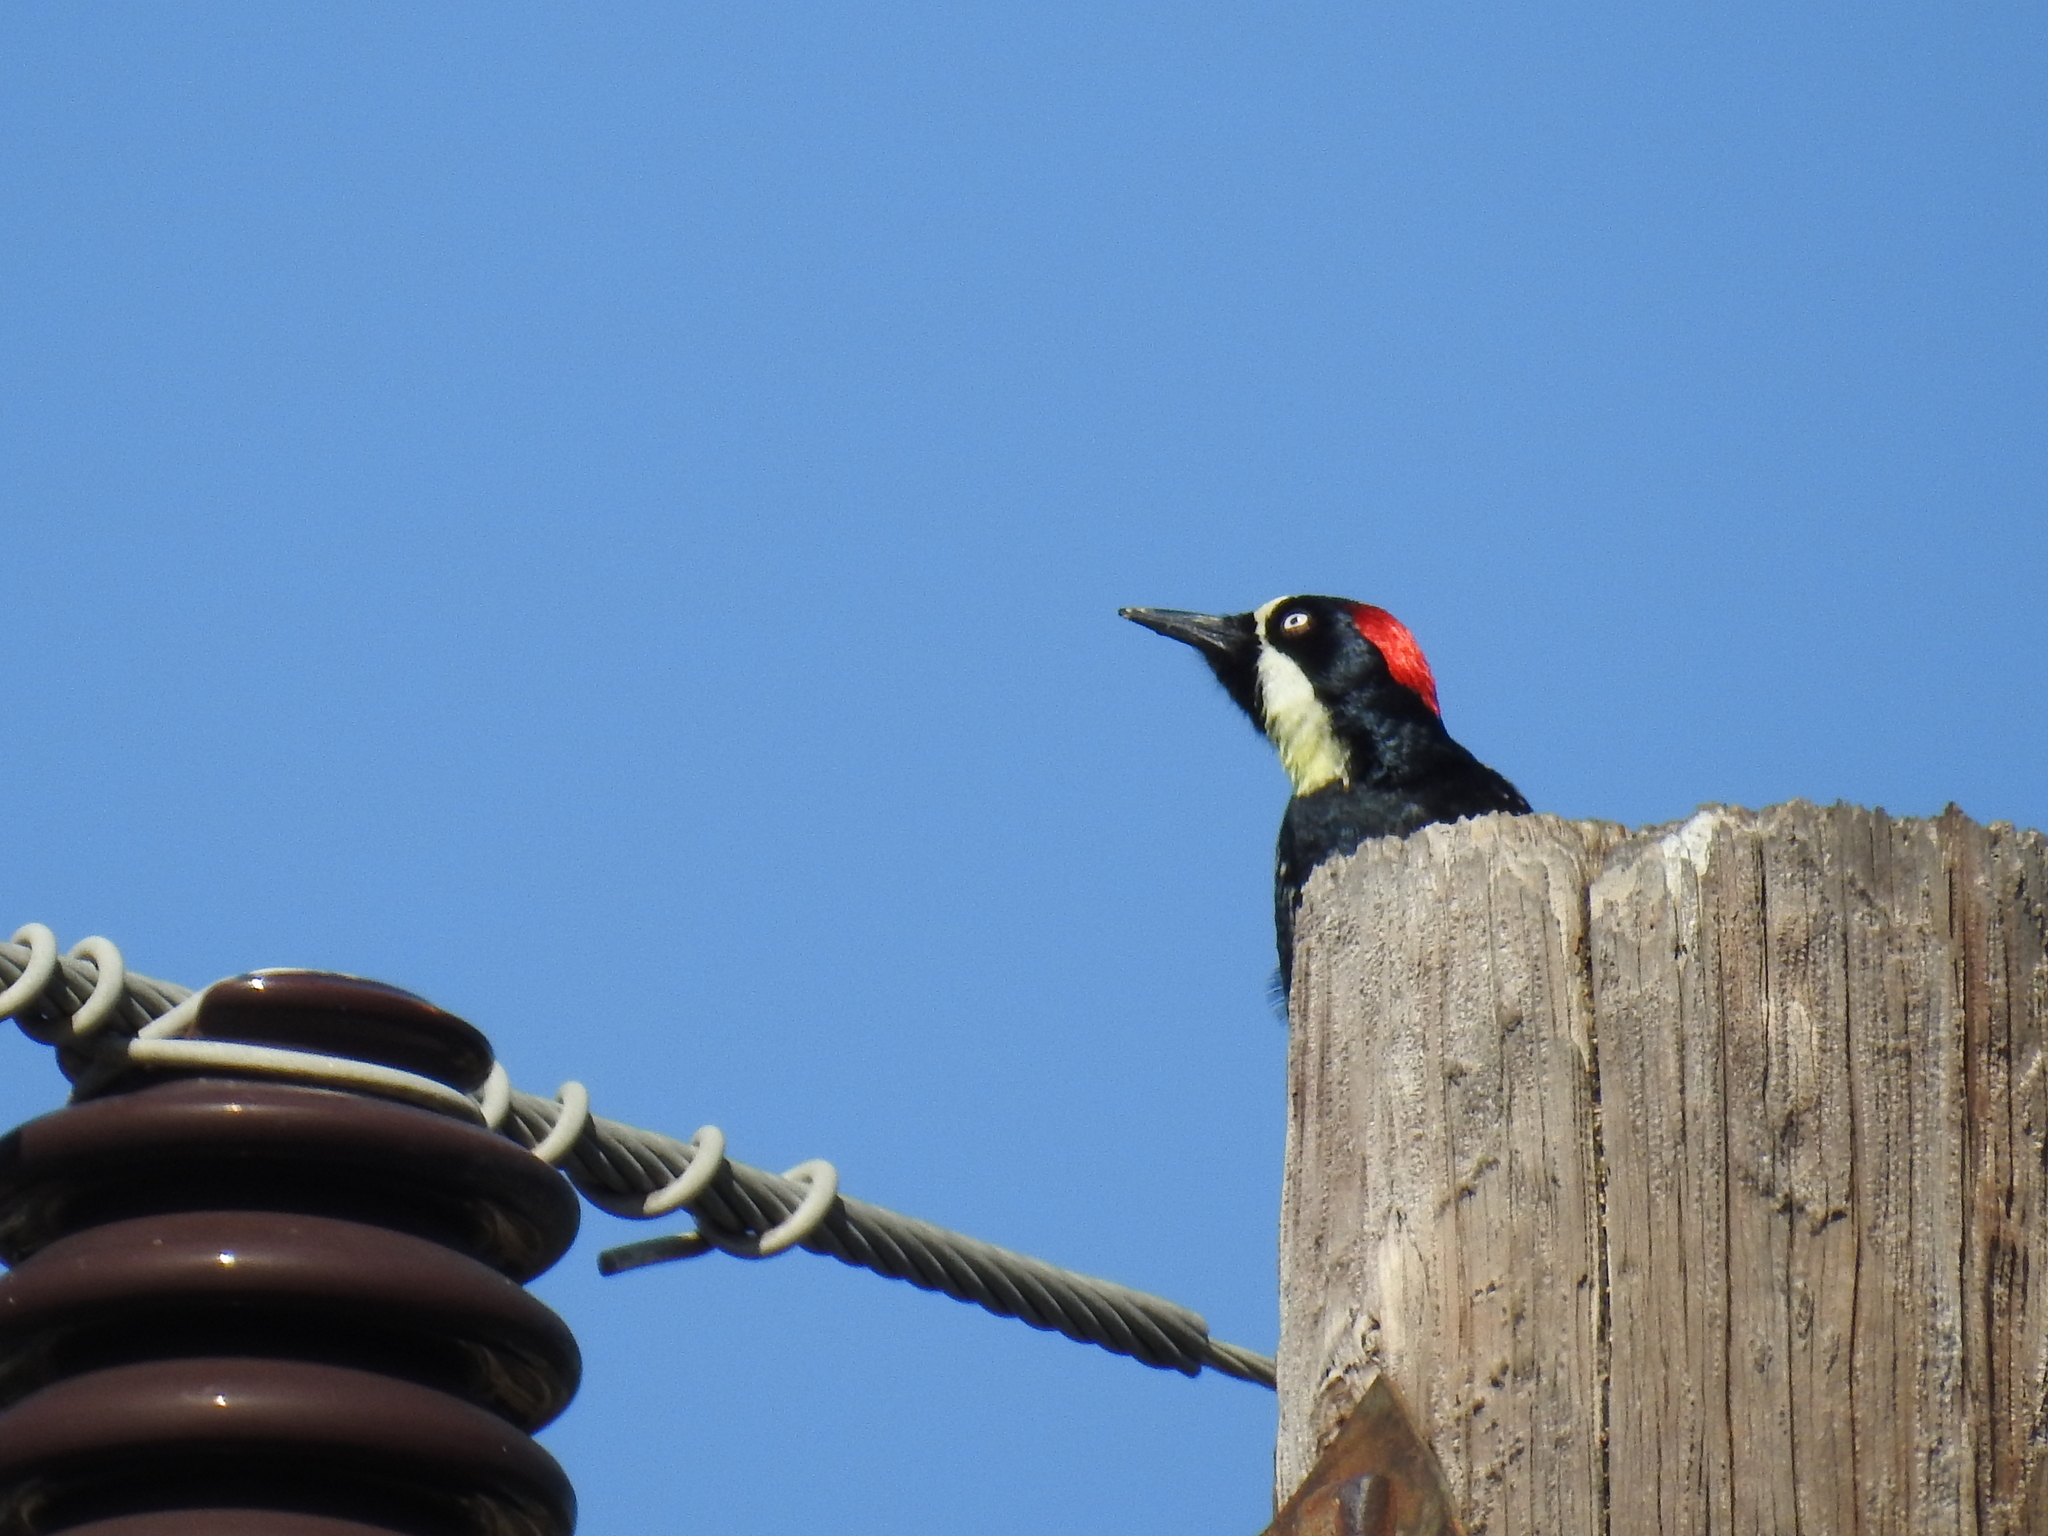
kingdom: Animalia
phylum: Chordata
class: Aves
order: Piciformes
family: Picidae
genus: Melanerpes
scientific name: Melanerpes formicivorus
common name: Acorn woodpecker
